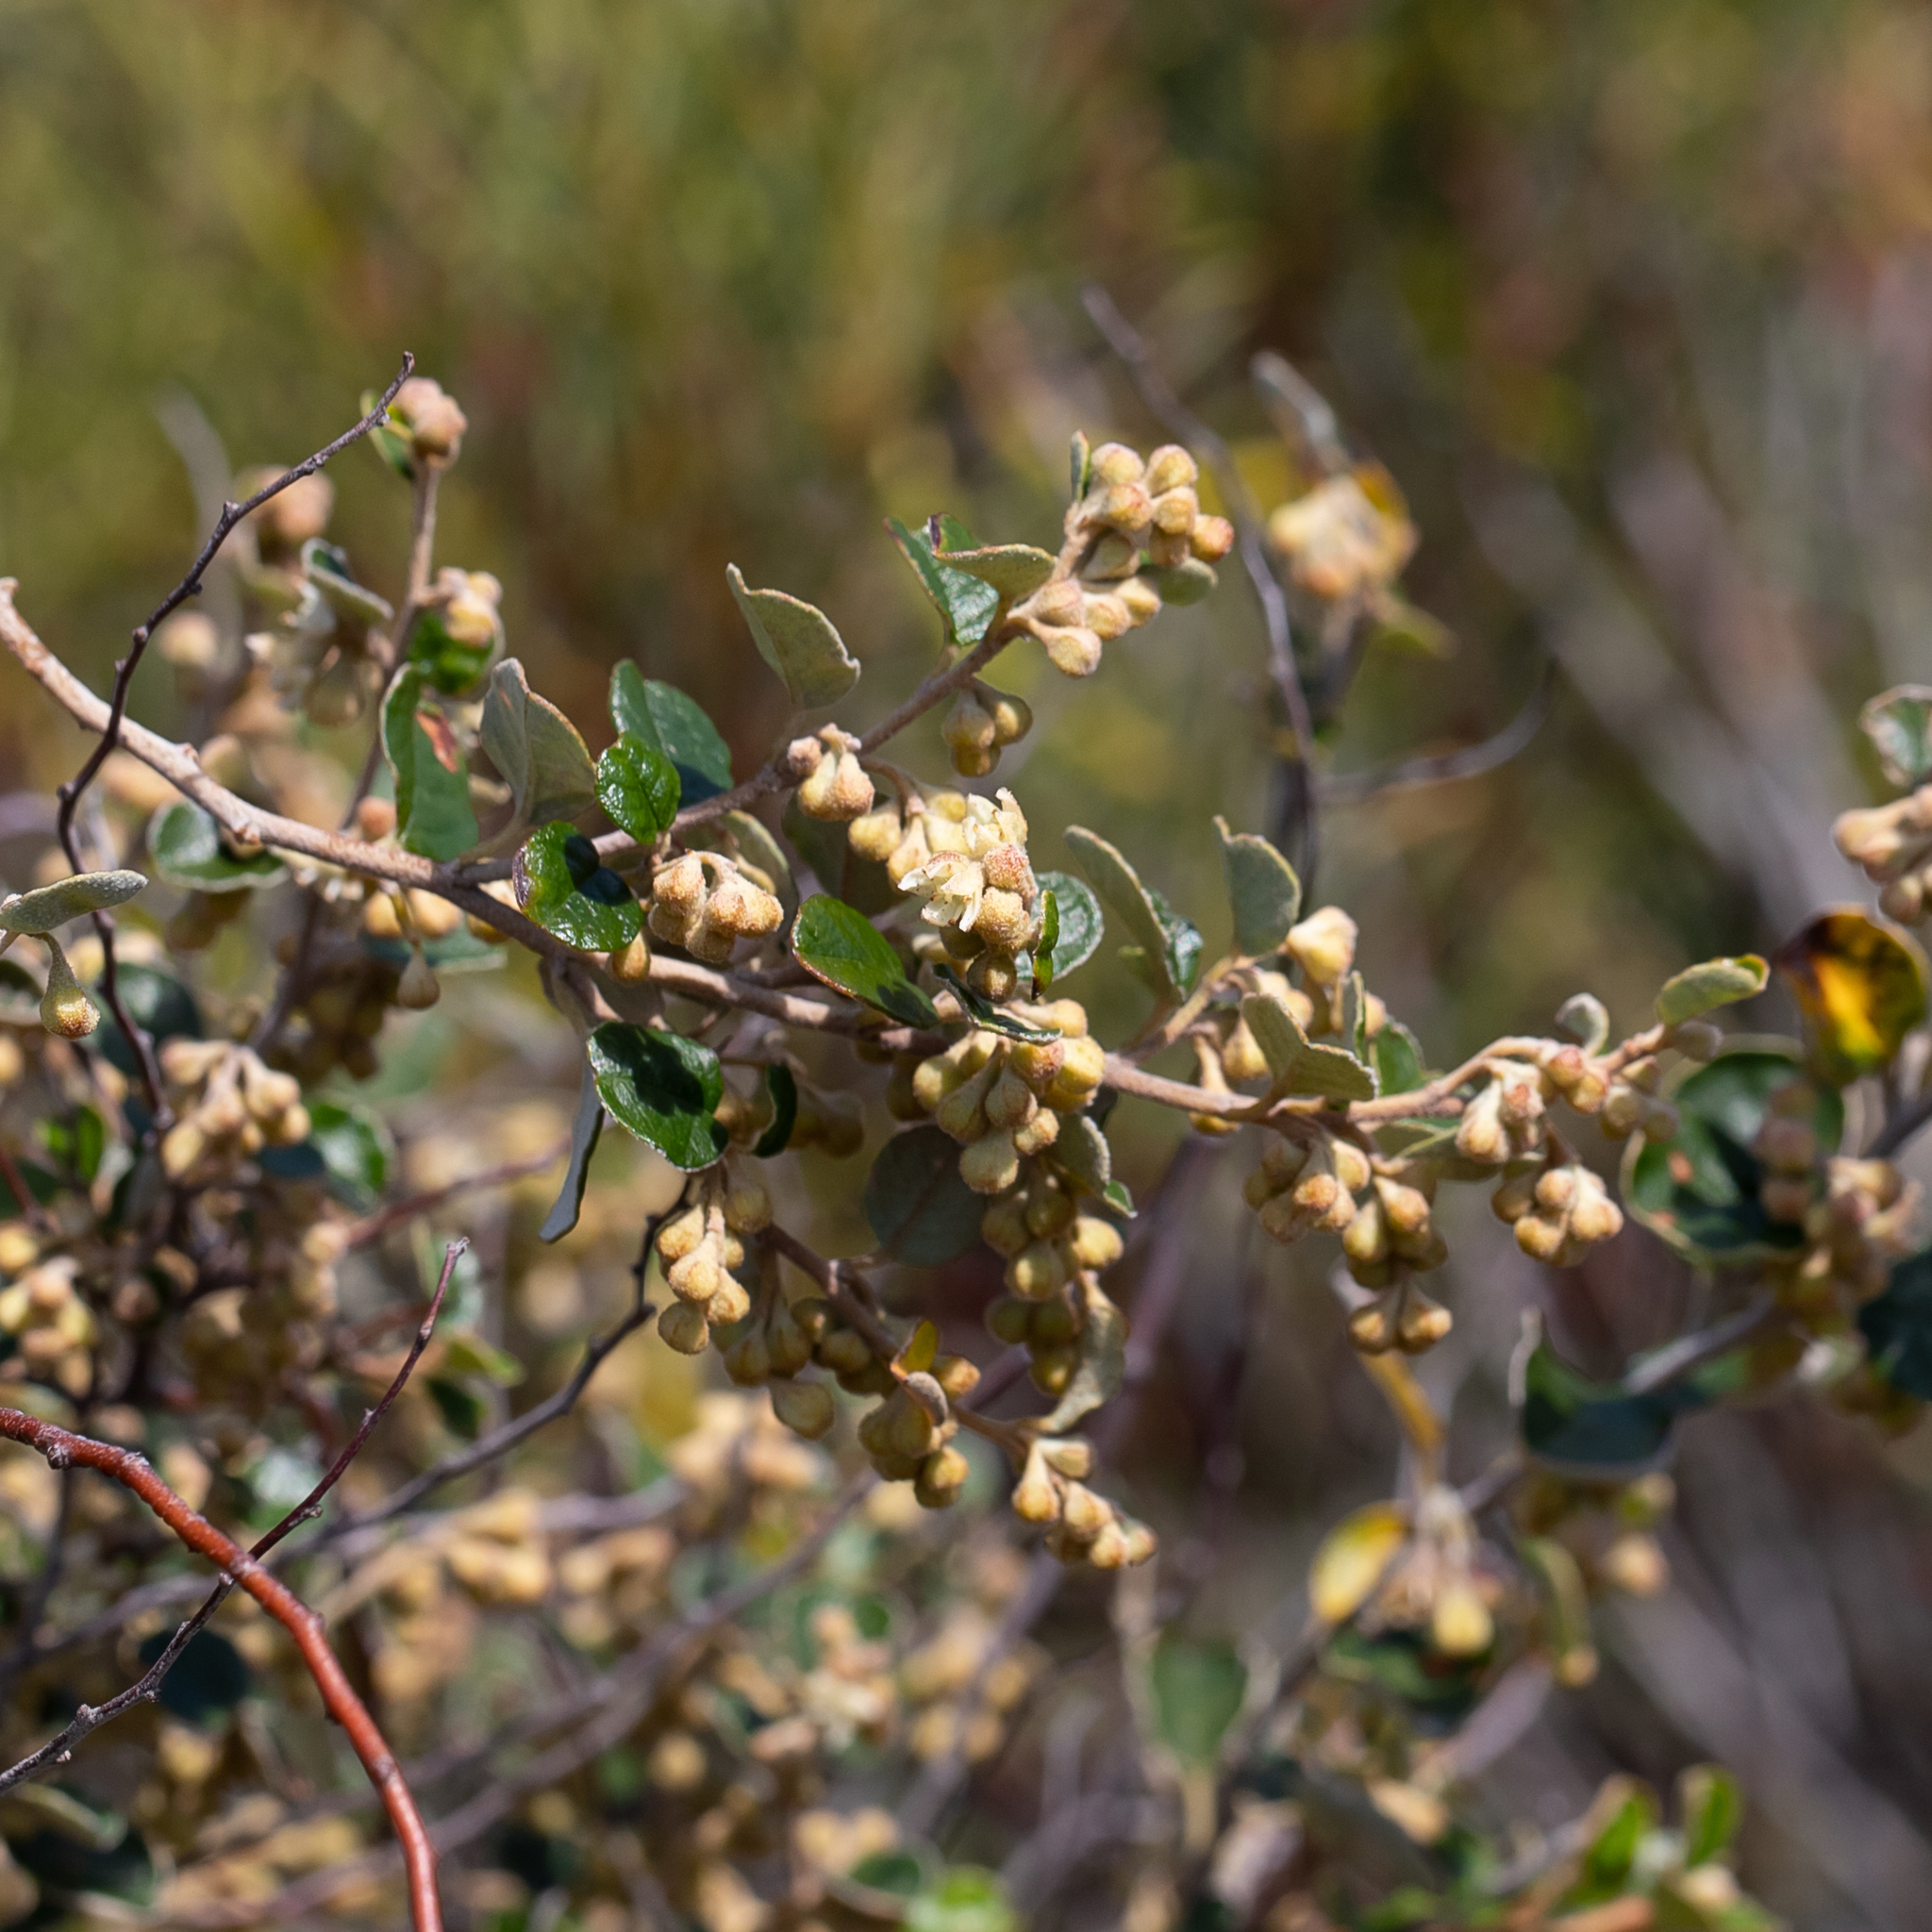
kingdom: Plantae
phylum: Tracheophyta
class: Magnoliopsida
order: Rosales
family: Rhamnaceae
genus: Pomaderris
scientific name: Pomaderris paniculosa
